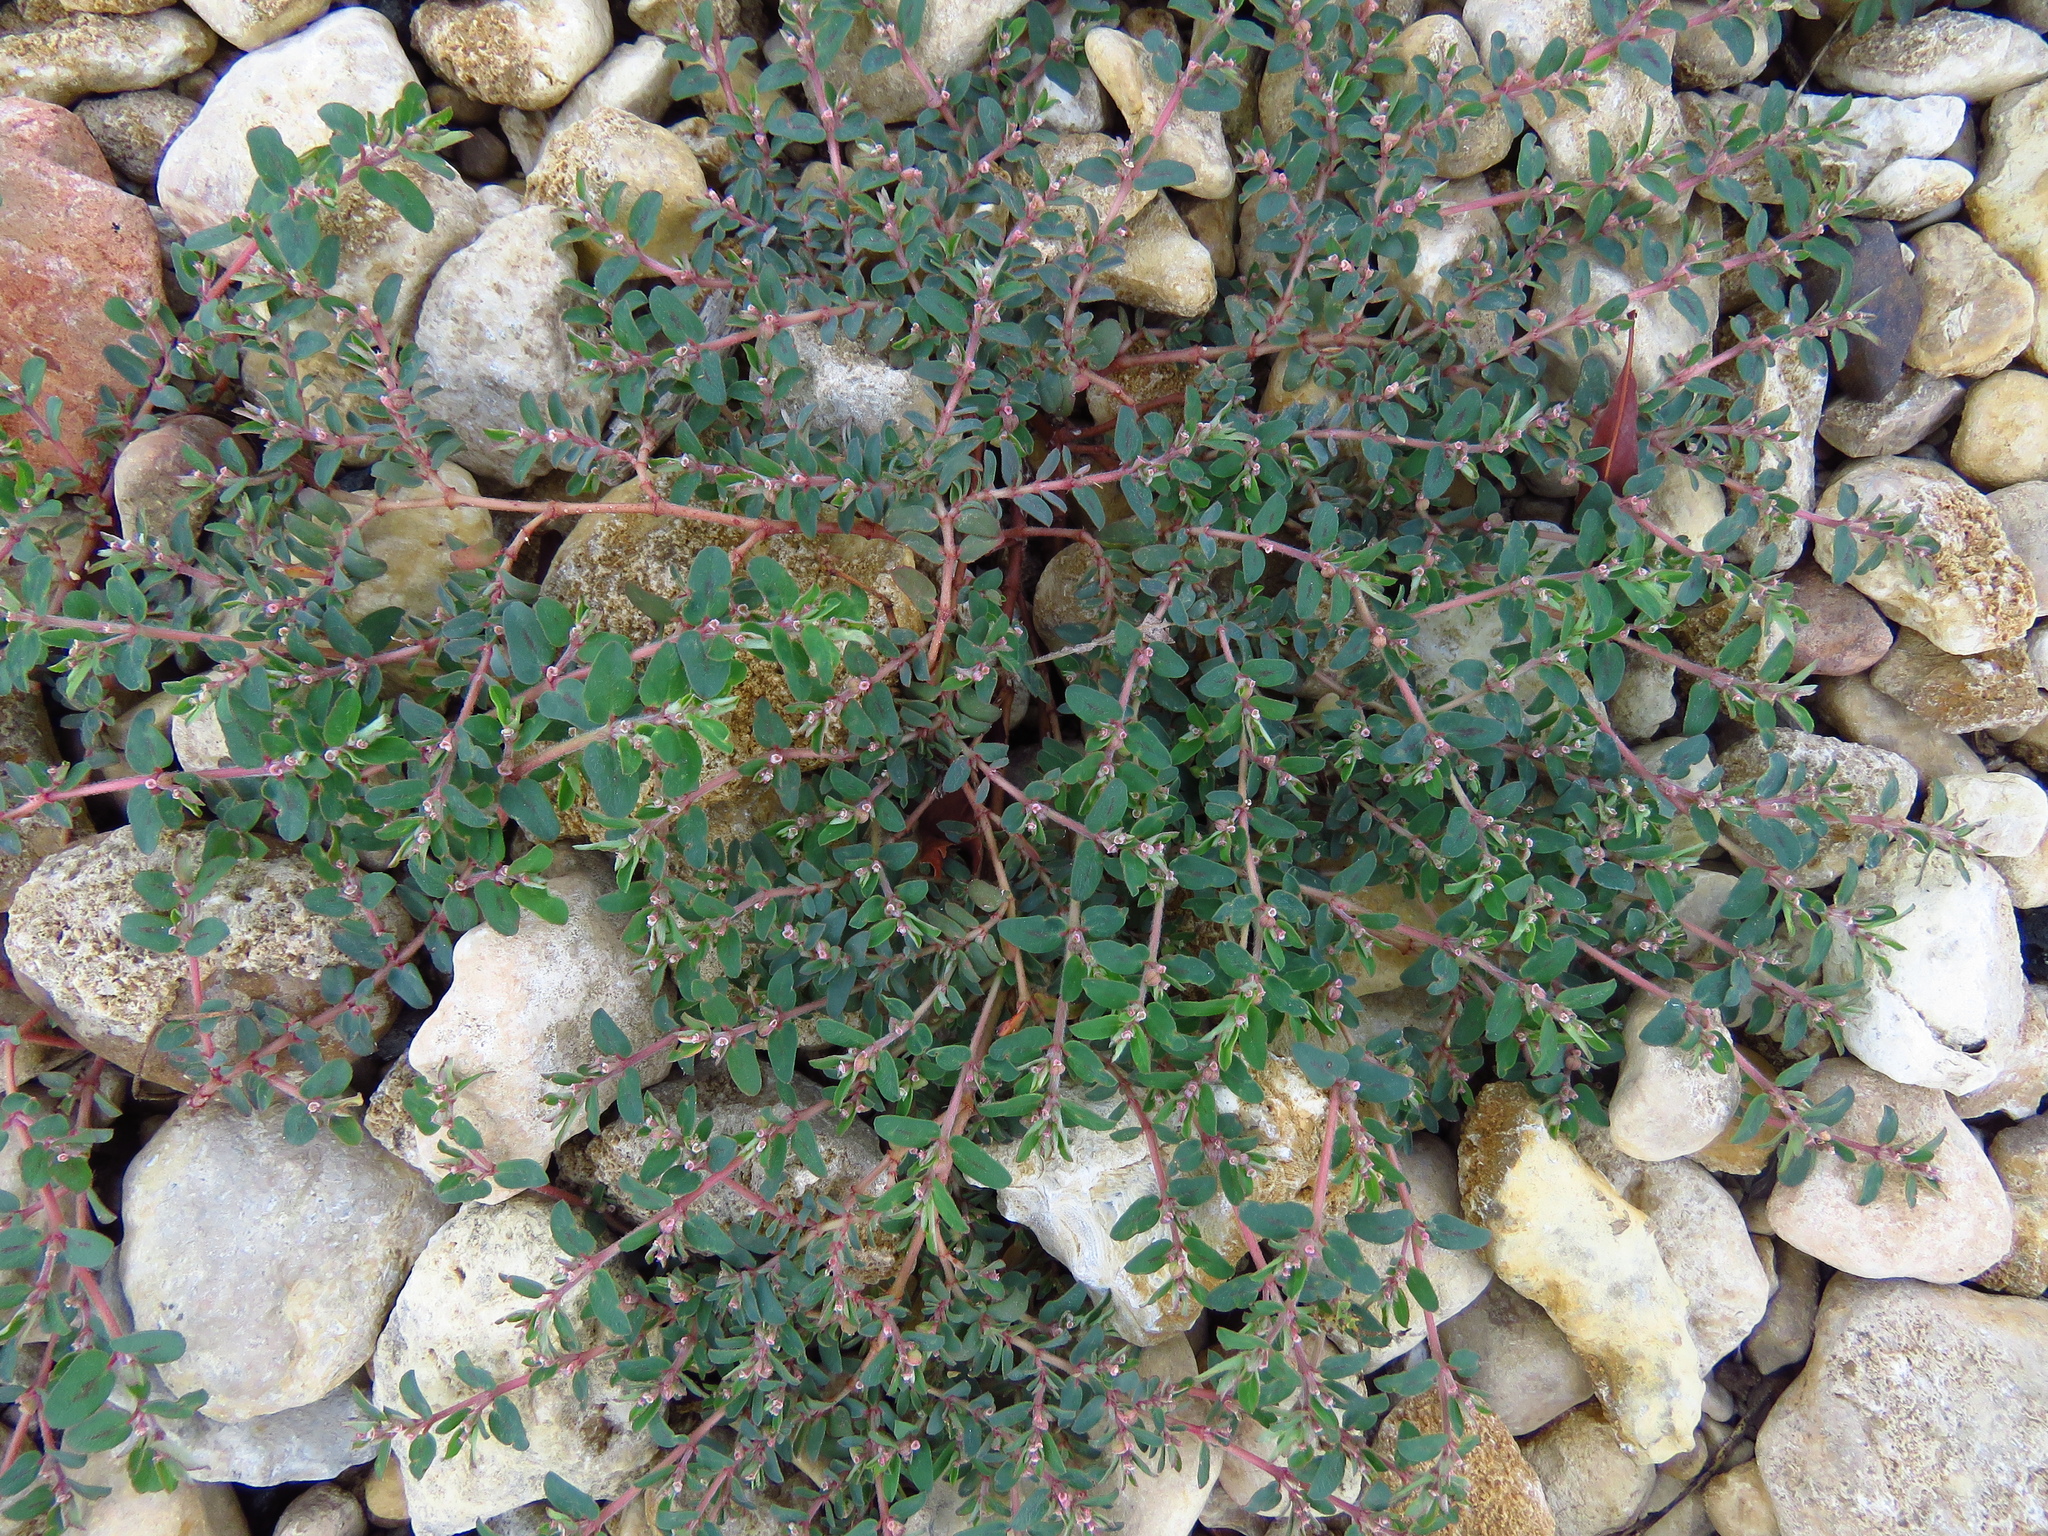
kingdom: Plantae
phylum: Tracheophyta
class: Magnoliopsida
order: Malpighiales
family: Euphorbiaceae
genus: Euphorbia
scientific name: Euphorbia maculata
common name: Spotted spurge
